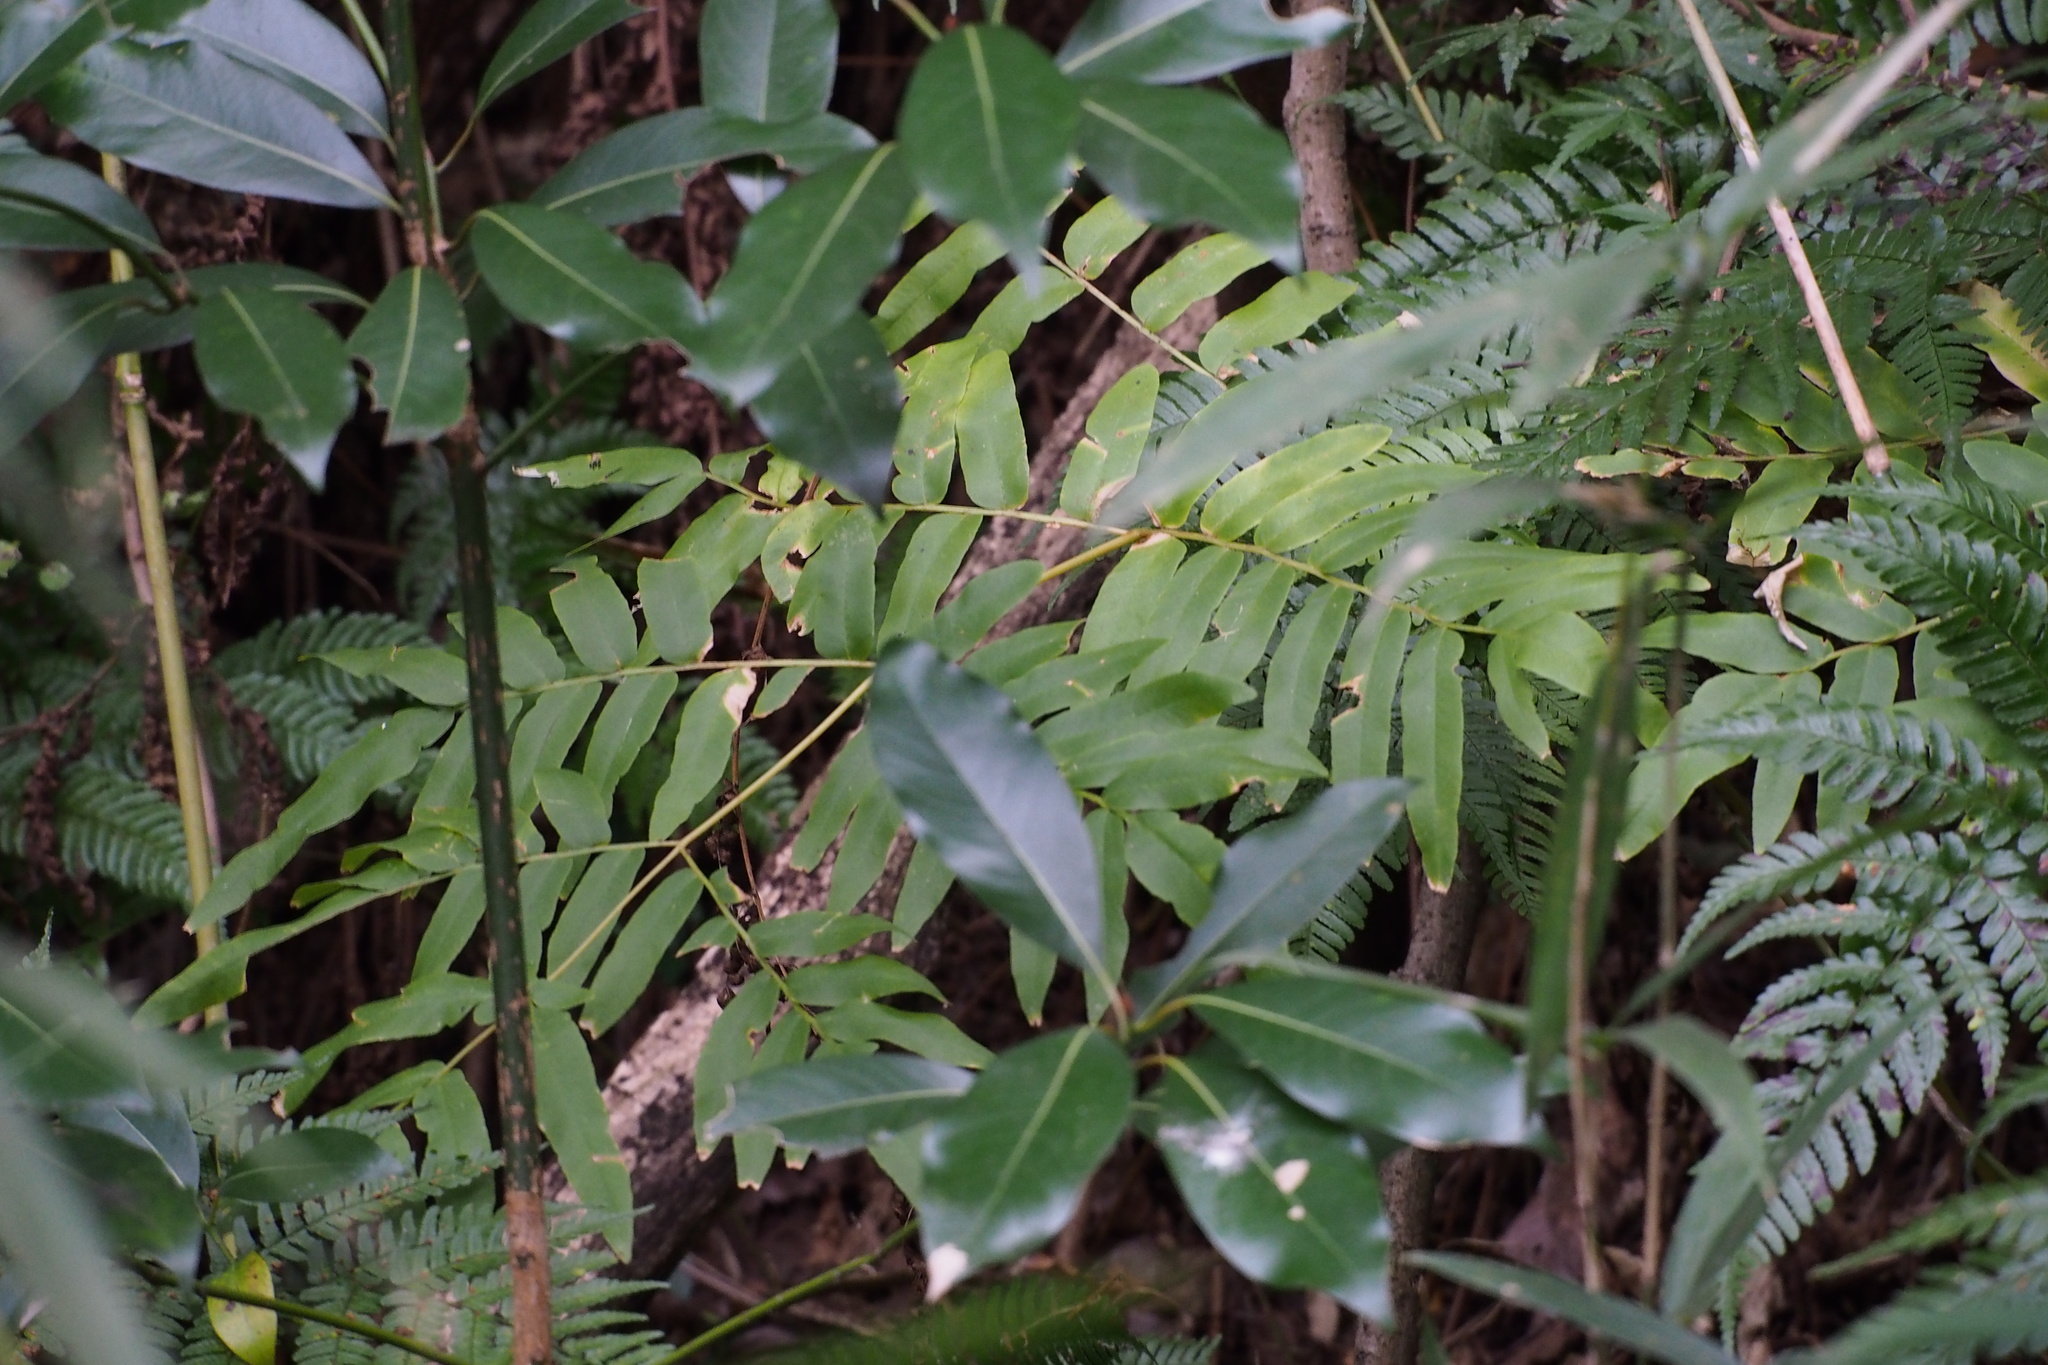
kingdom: Plantae
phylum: Tracheophyta
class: Polypodiopsida
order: Osmundales
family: Osmundaceae
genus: Osmunda
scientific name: Osmunda japonica
